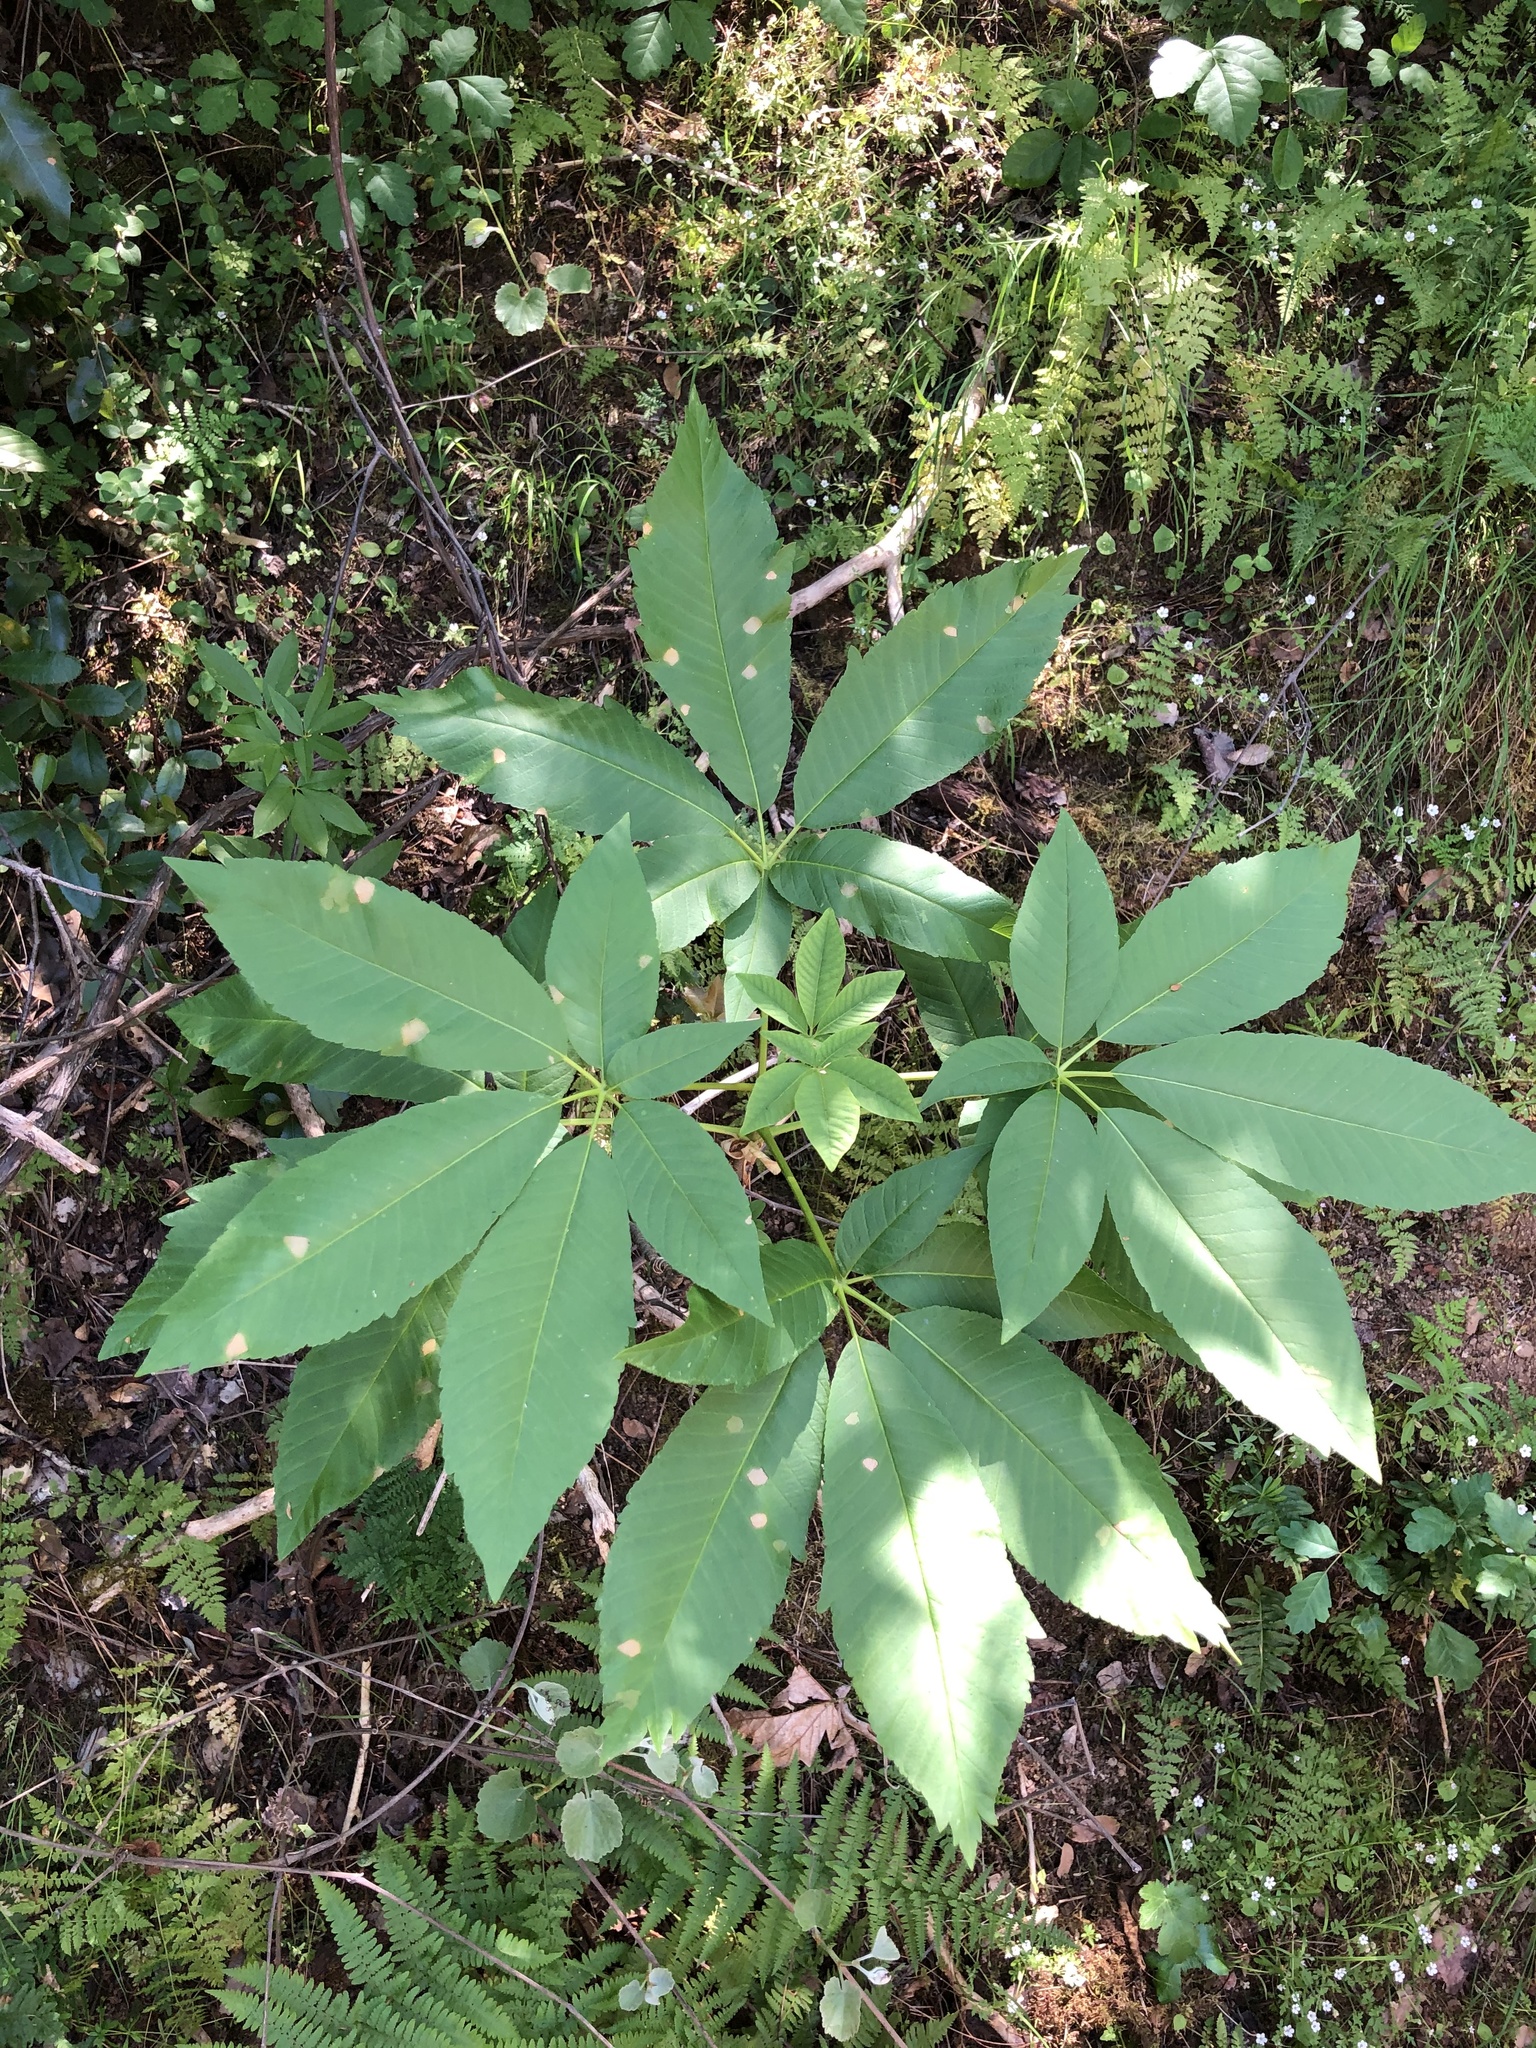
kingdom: Plantae
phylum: Tracheophyta
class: Magnoliopsida
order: Sapindales
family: Sapindaceae
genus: Aesculus
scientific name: Aesculus californica
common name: California buckeye
